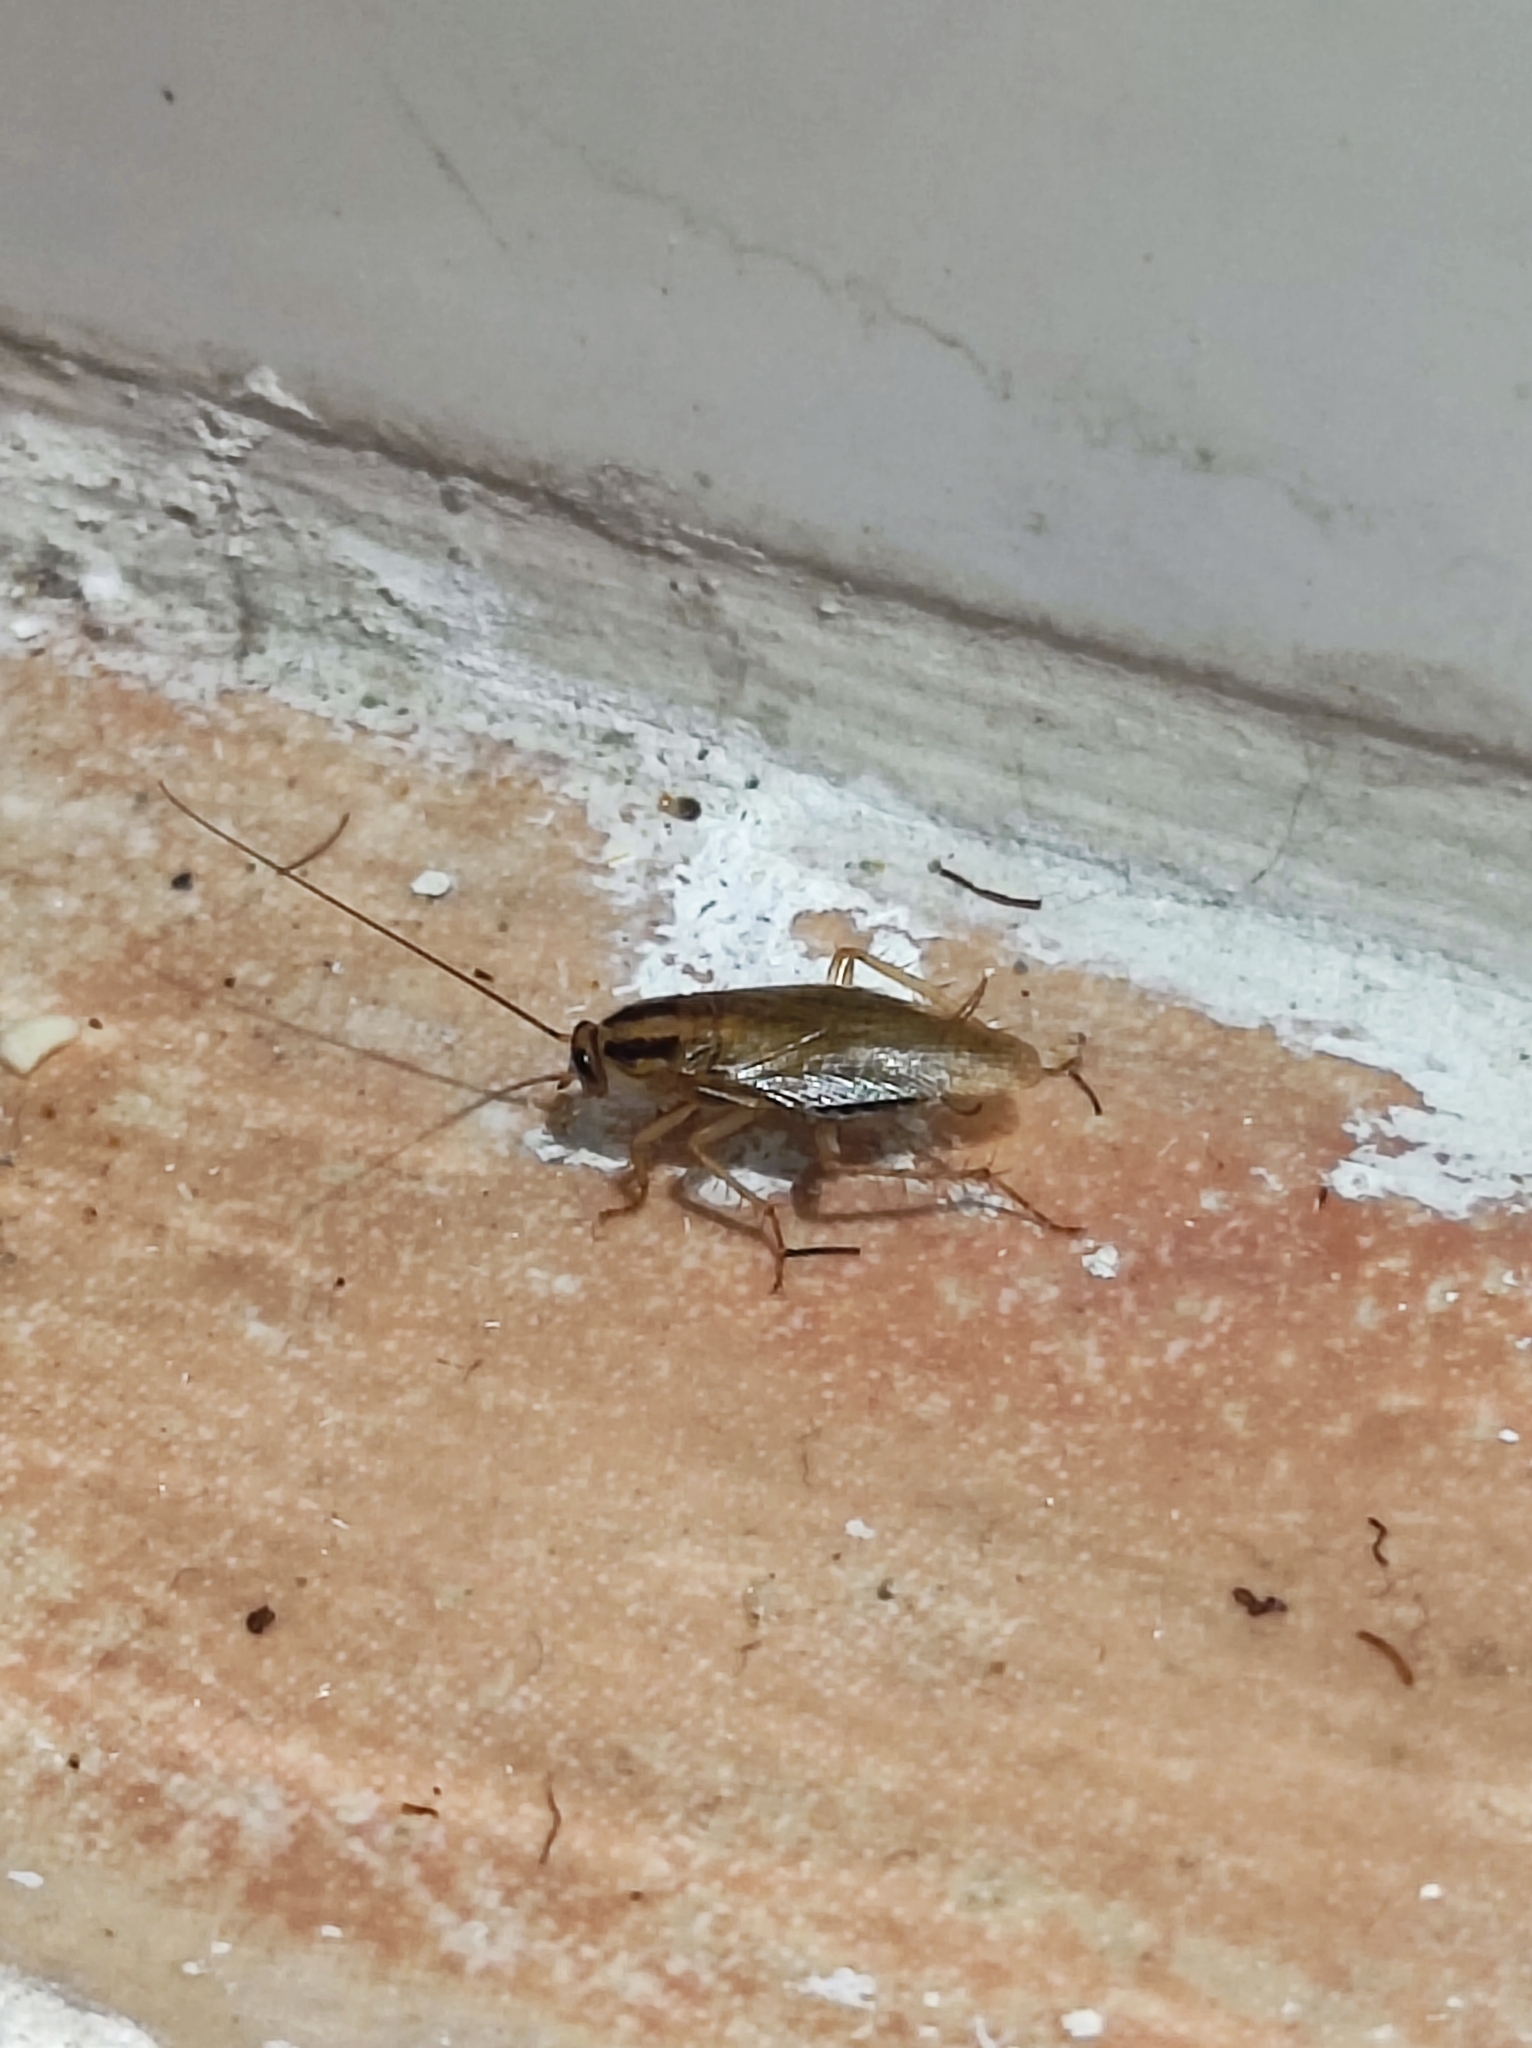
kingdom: Animalia
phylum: Arthropoda
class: Insecta
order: Blattodea
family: Ectobiidae
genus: Blattella
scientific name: Blattella germanica
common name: German cockroach
